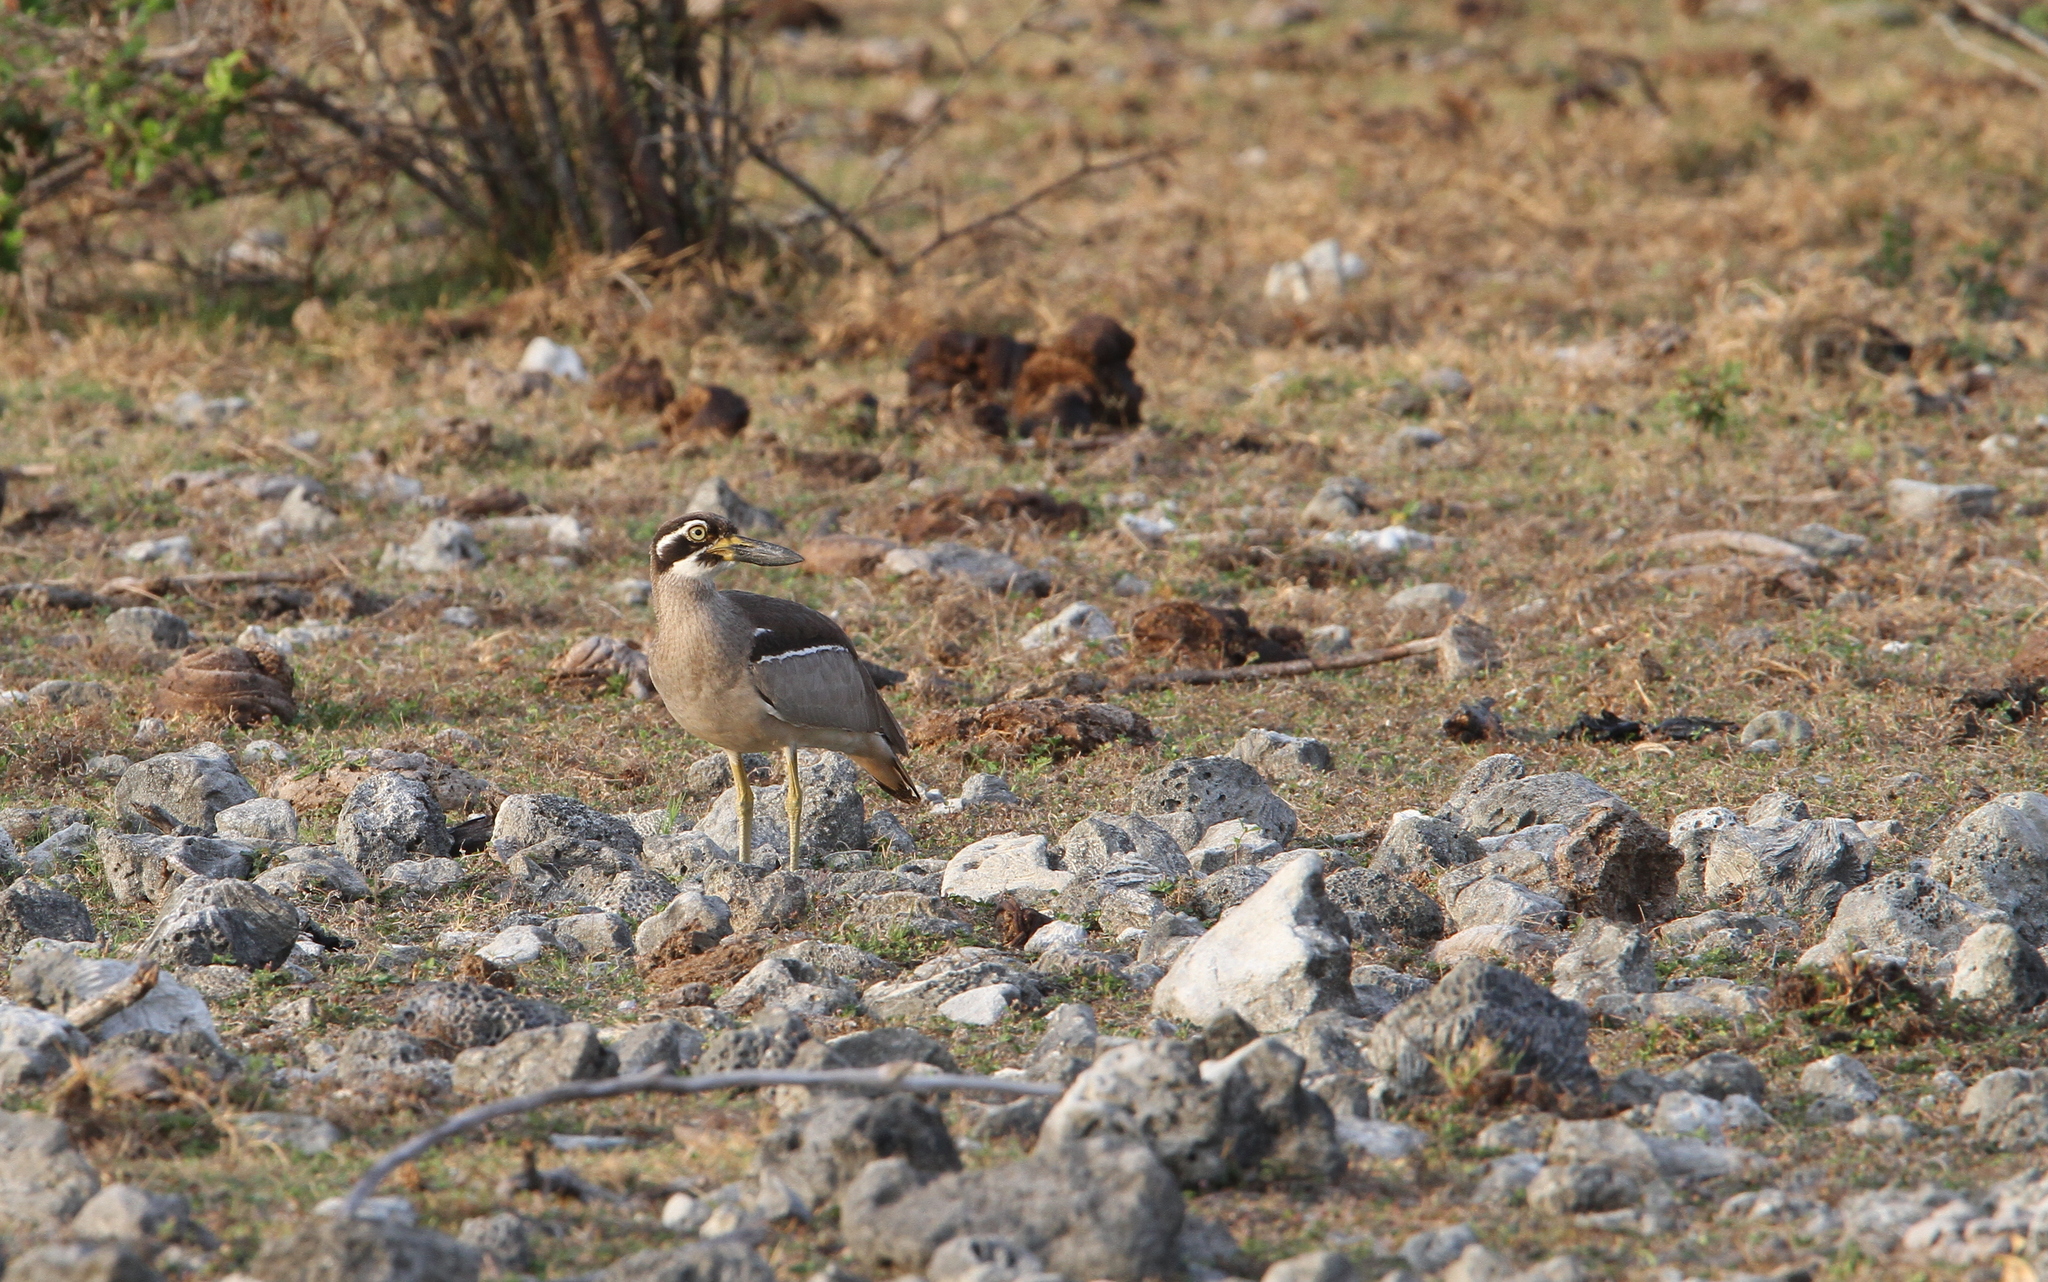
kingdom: Animalia
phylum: Chordata
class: Aves
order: Charadriiformes
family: Burhinidae
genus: Esacus
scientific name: Esacus magnirostris
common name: Beach stone-curlew
